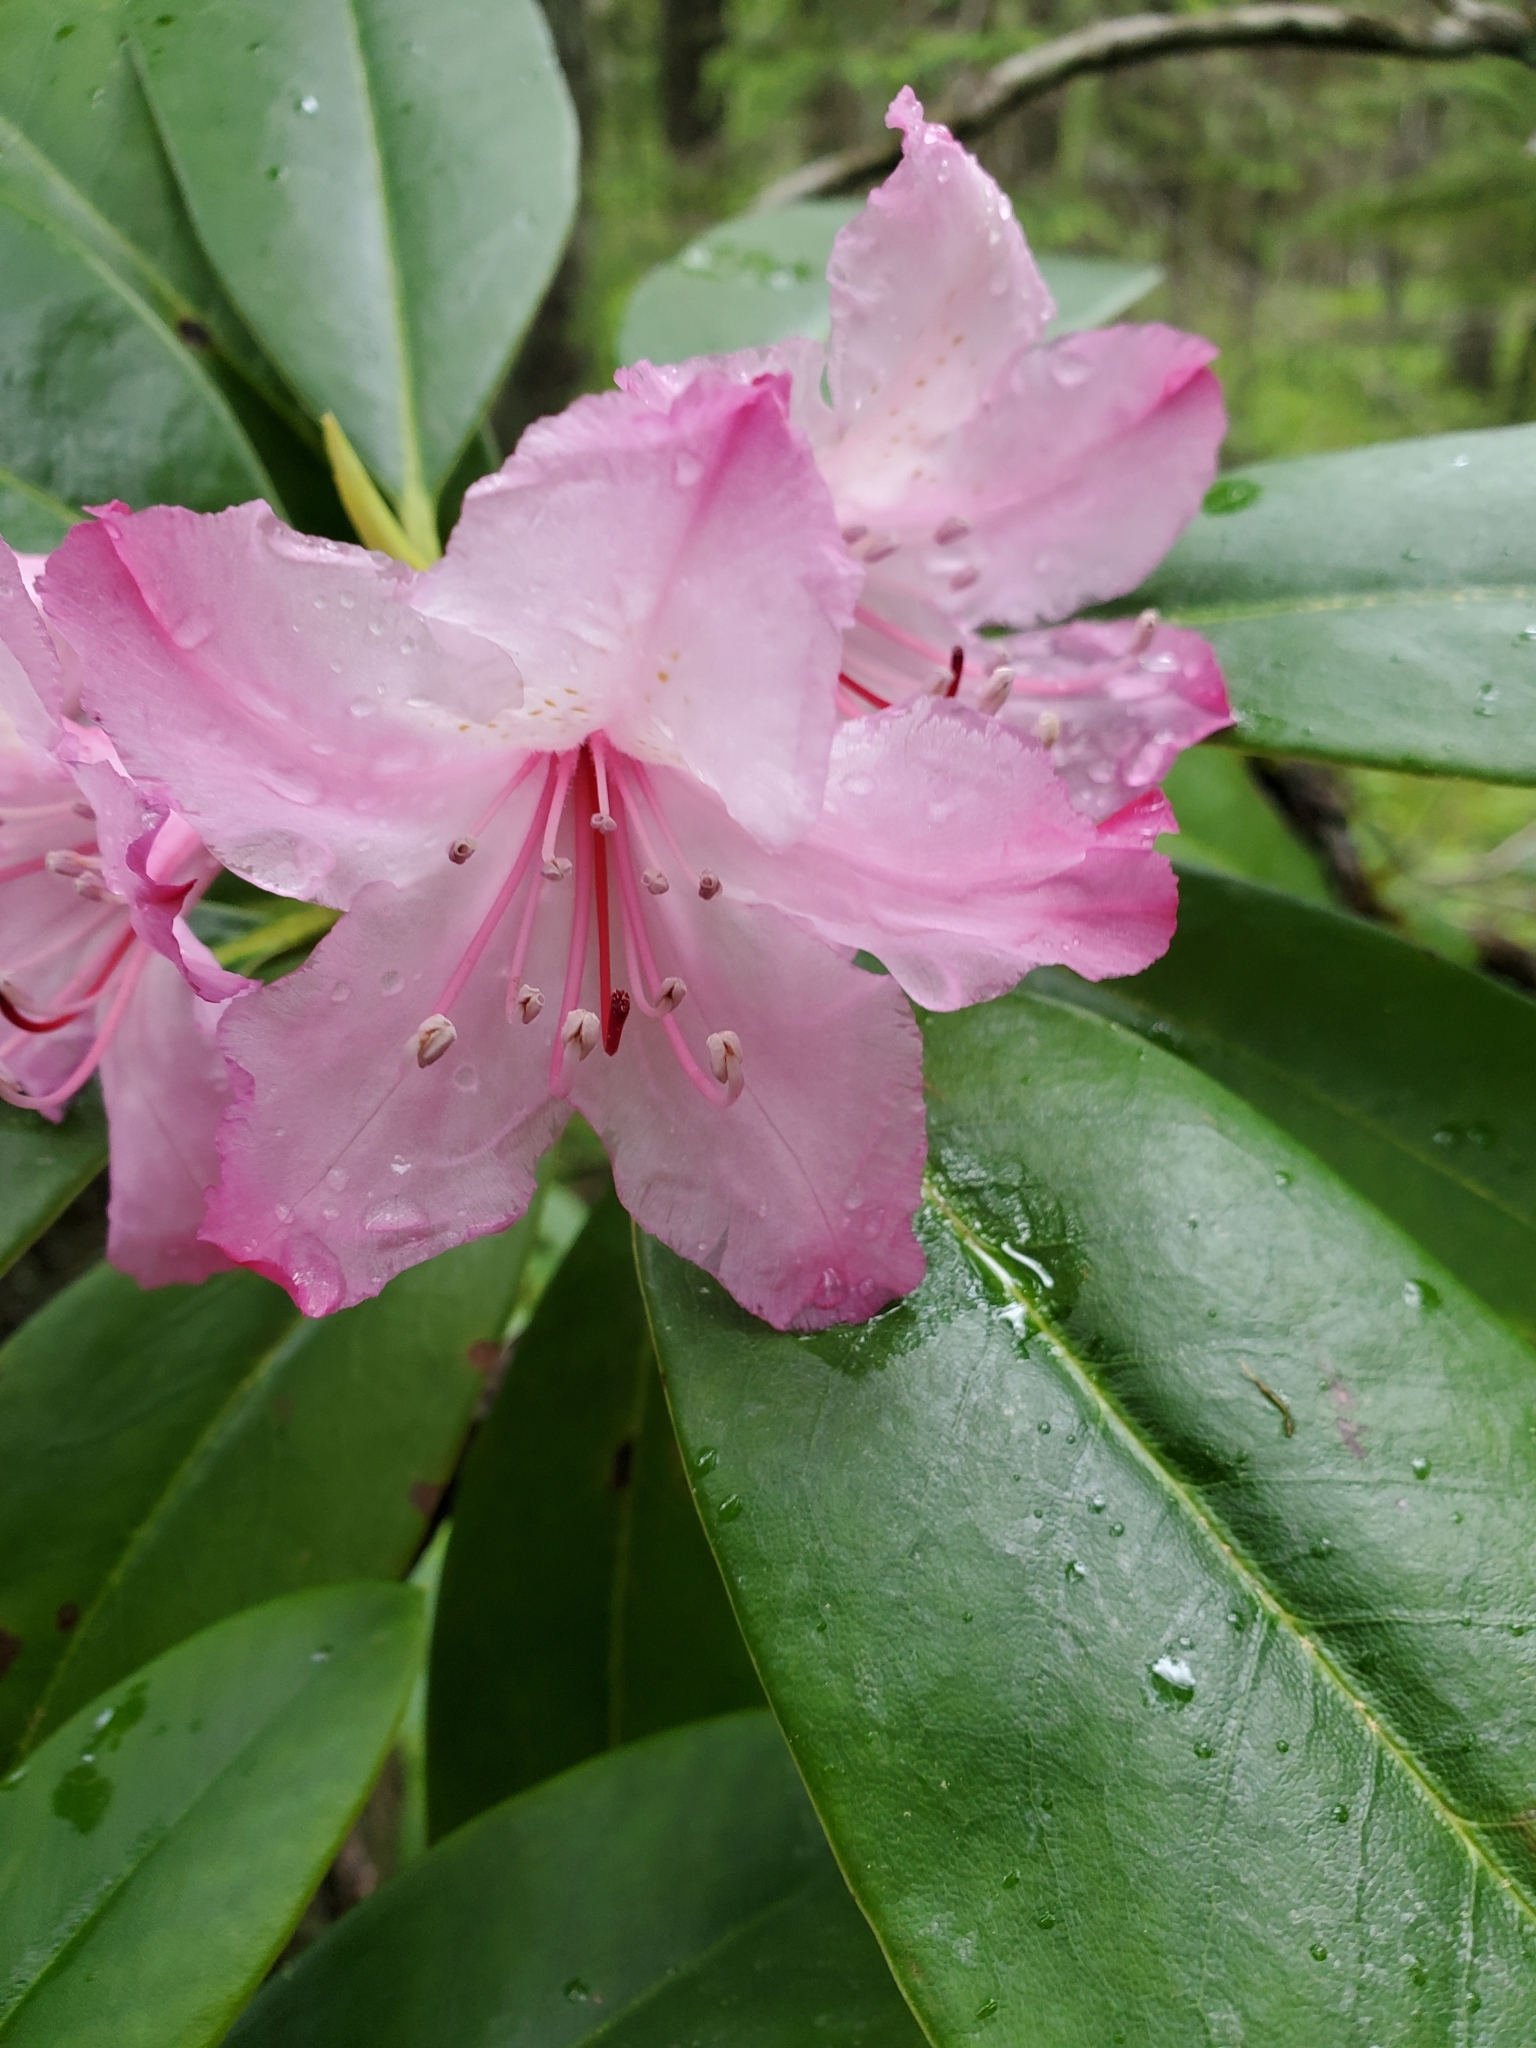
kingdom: Plantae
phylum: Tracheophyta
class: Magnoliopsida
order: Ericales
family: Ericaceae
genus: Rhododendron
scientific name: Rhododendron macrophyllum
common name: California rose bay
